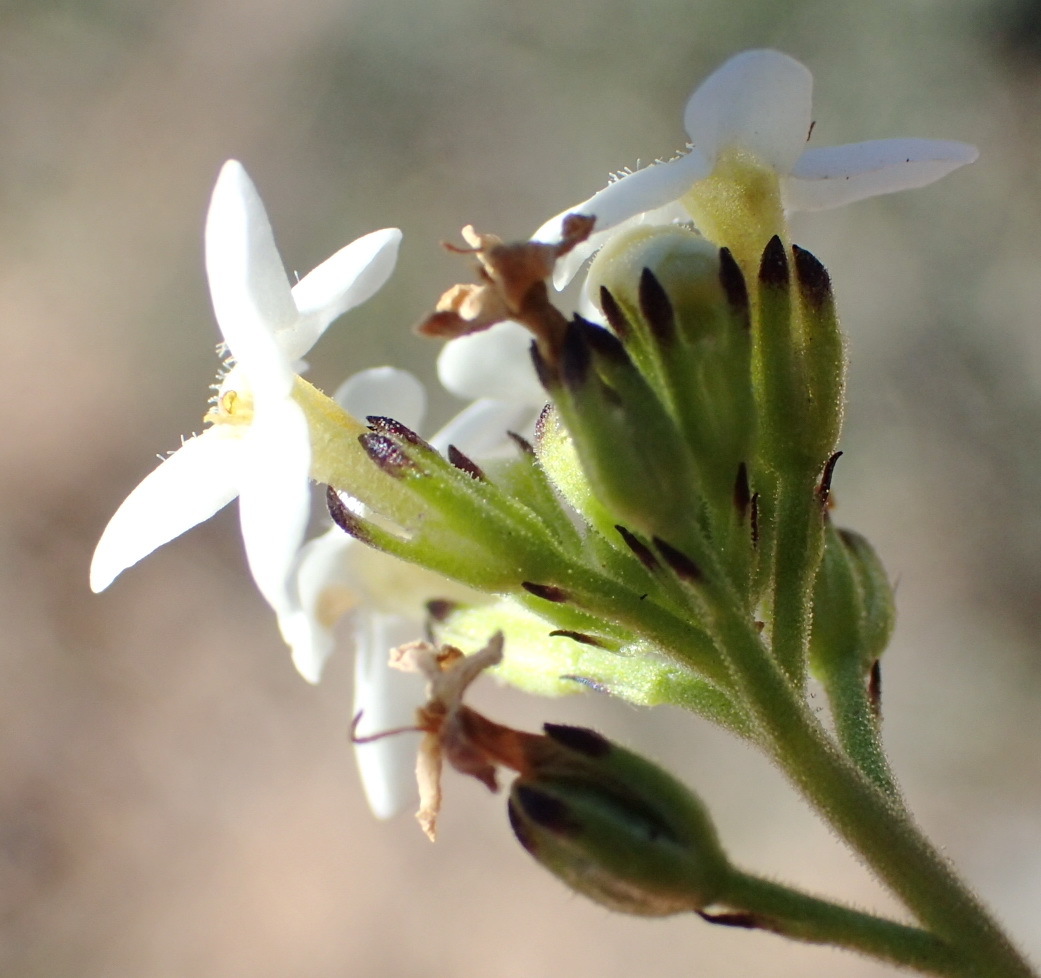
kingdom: Plantae
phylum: Tracheophyta
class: Magnoliopsida
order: Lamiales
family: Scrophulariaceae
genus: Manulea
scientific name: Manulea derustiana
